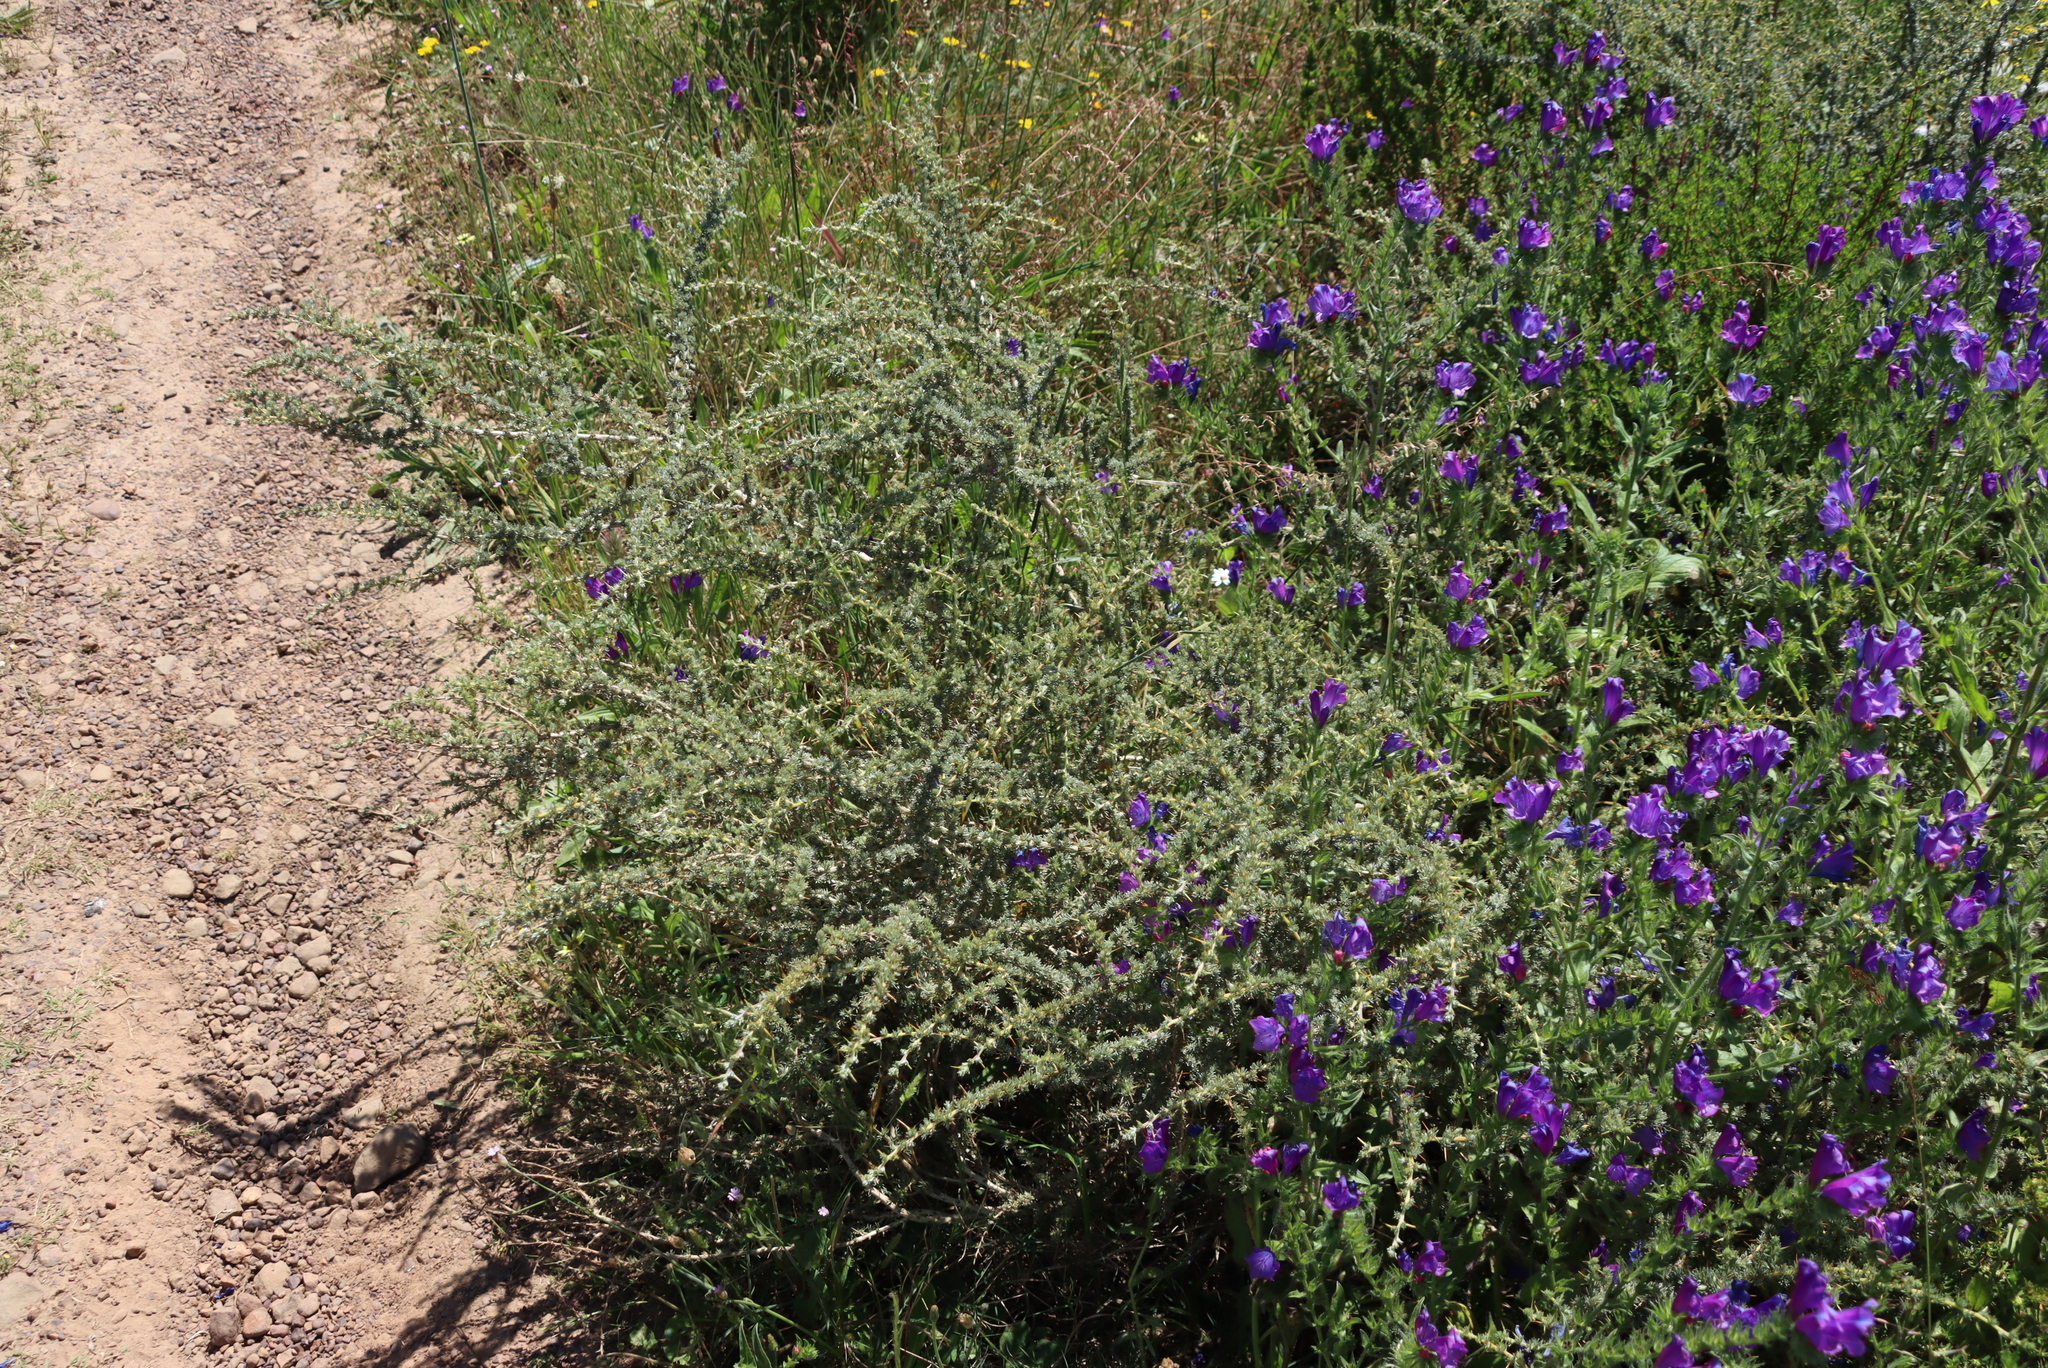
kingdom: Plantae
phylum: Tracheophyta
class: Magnoliopsida
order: Boraginales
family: Boraginaceae
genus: Echium
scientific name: Echium plantagineum
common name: Purple viper's-bugloss
